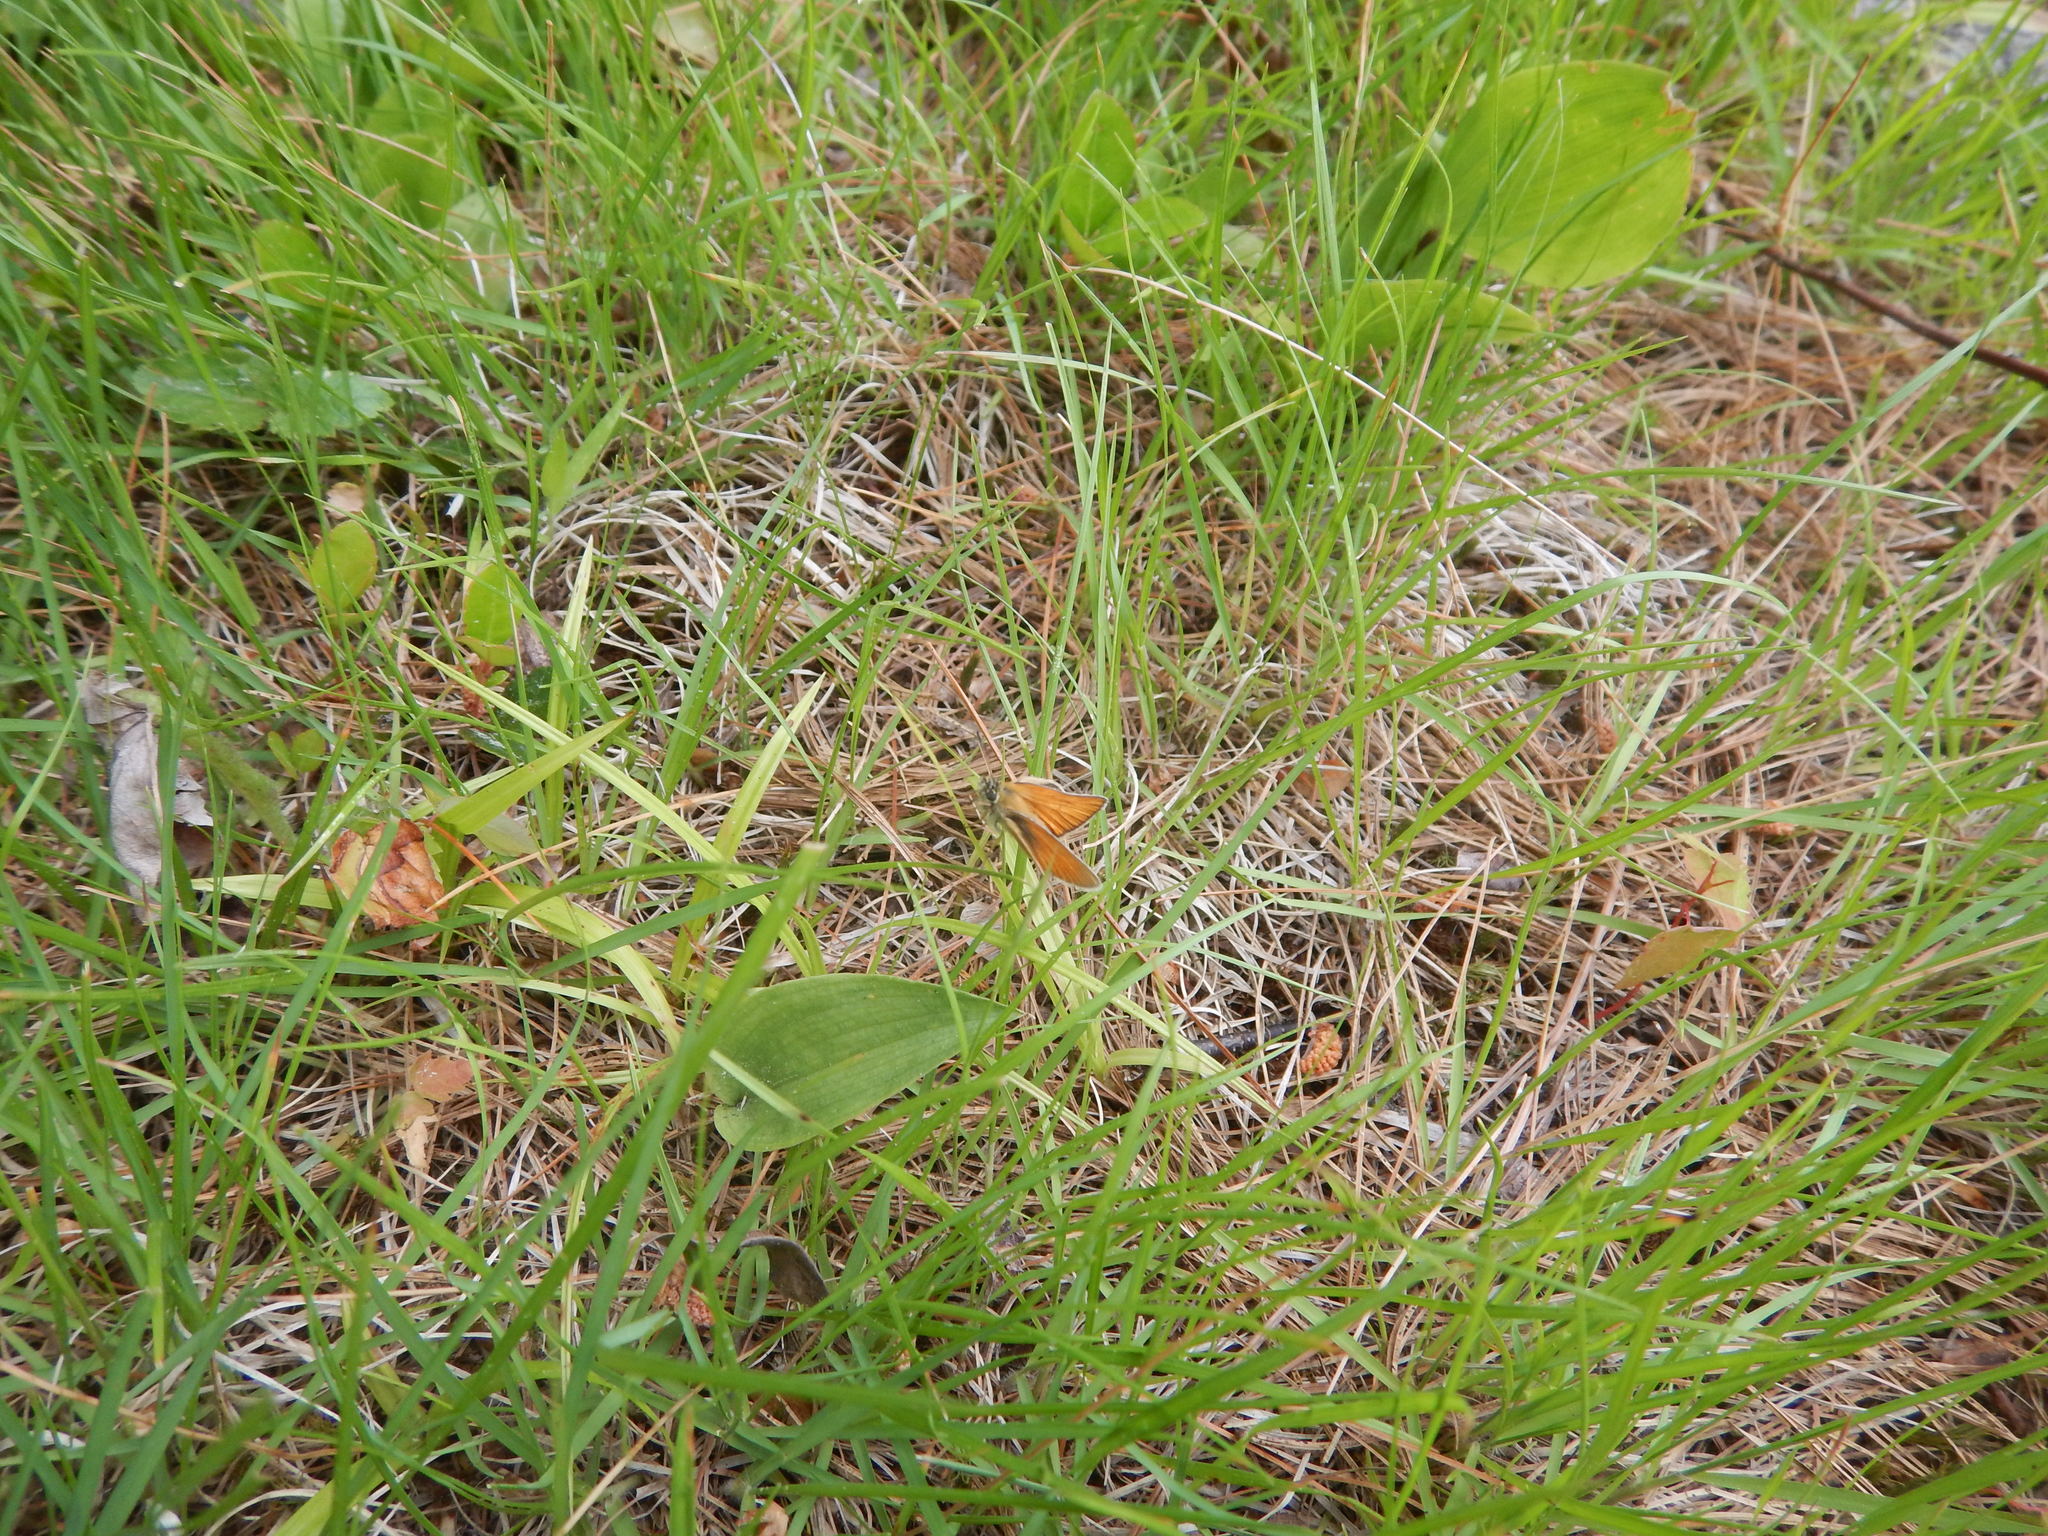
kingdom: Animalia
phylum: Arthropoda
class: Insecta
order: Lepidoptera
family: Hesperiidae
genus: Thymelicus
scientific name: Thymelicus lineola
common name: Essex skipper
